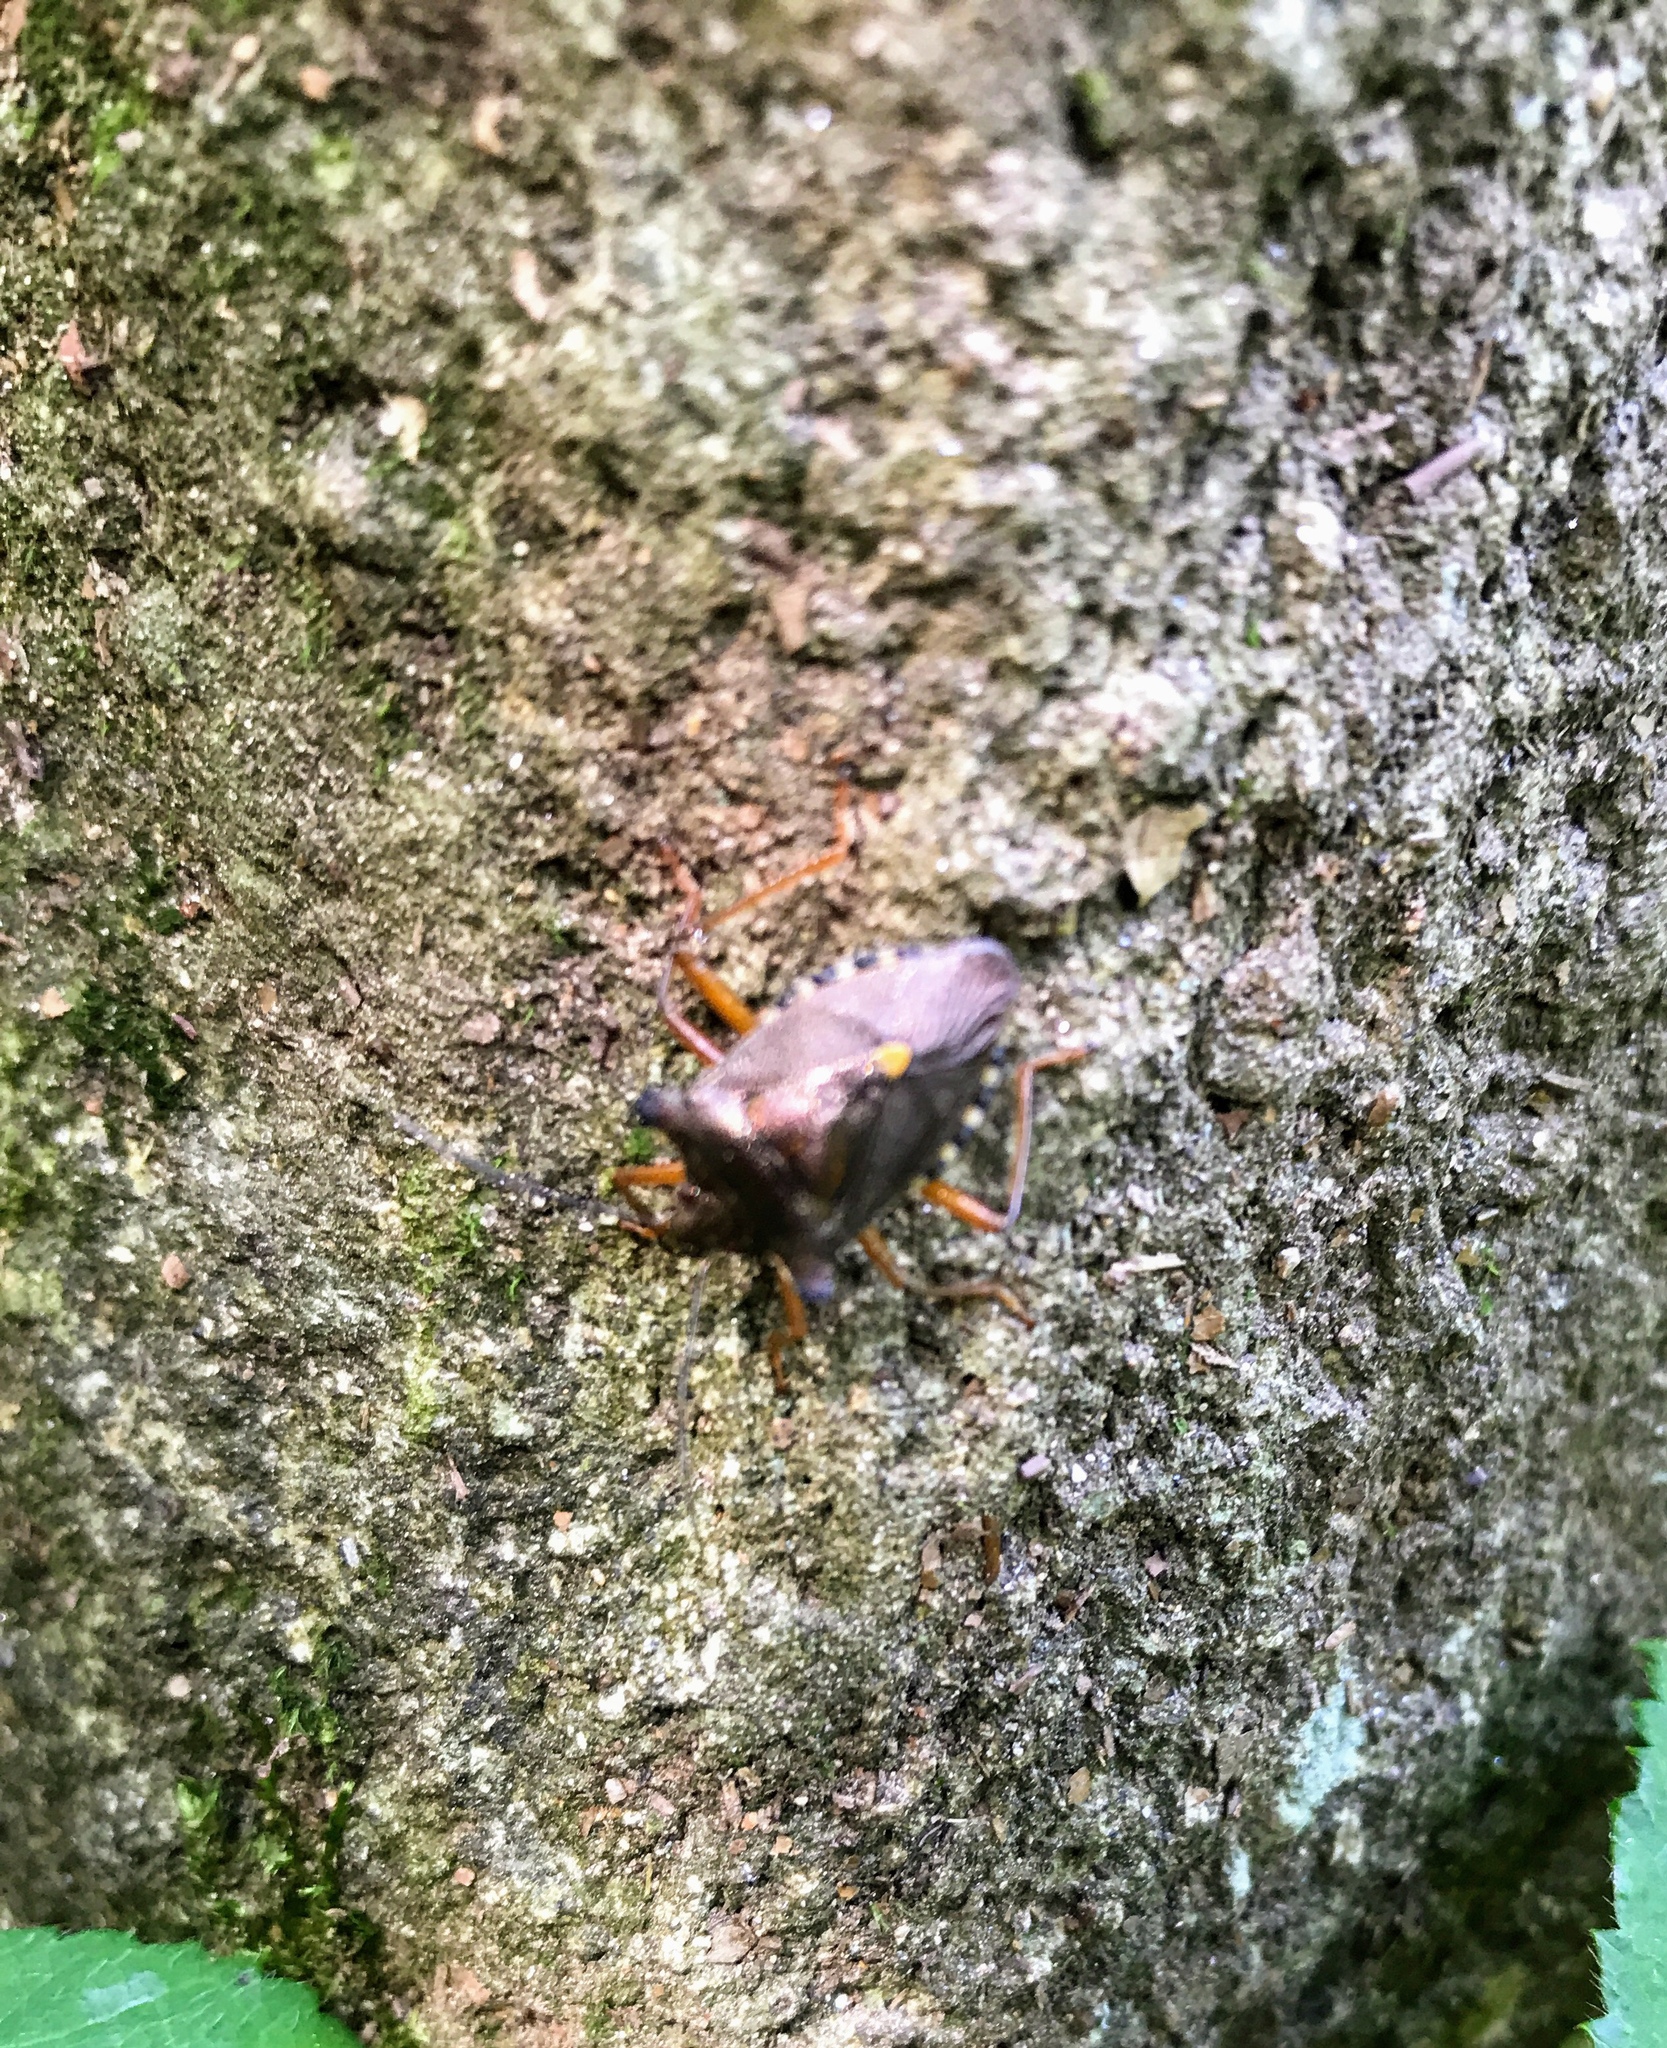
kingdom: Animalia
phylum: Arthropoda
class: Insecta
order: Hemiptera
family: Pentatomidae
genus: Pentatoma
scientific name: Pentatoma rufipes
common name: Forest bug
